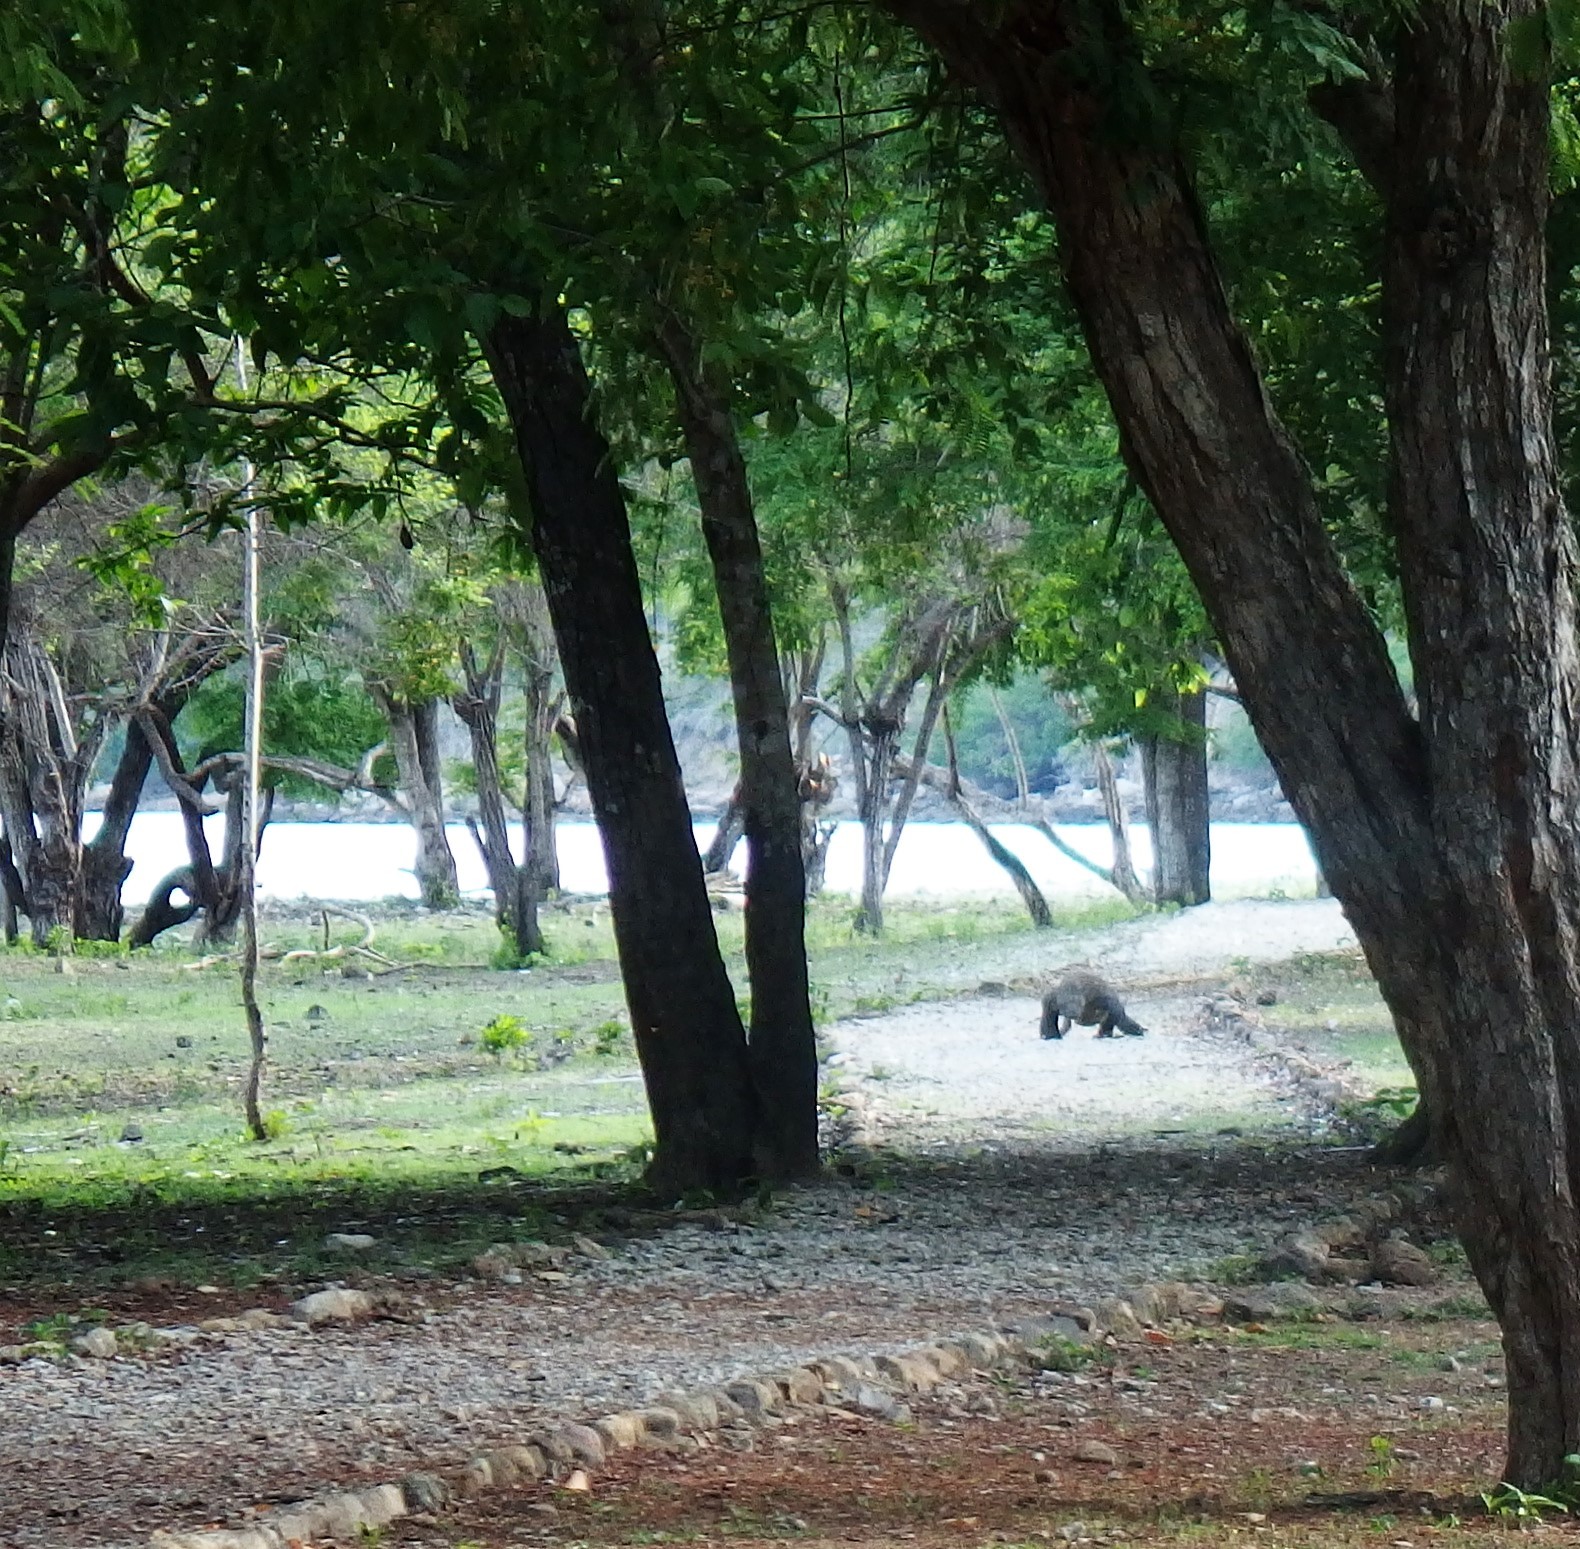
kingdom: Animalia
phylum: Chordata
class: Squamata
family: Varanidae
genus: Varanus
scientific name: Varanus komodoensis
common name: Komodo dragon
